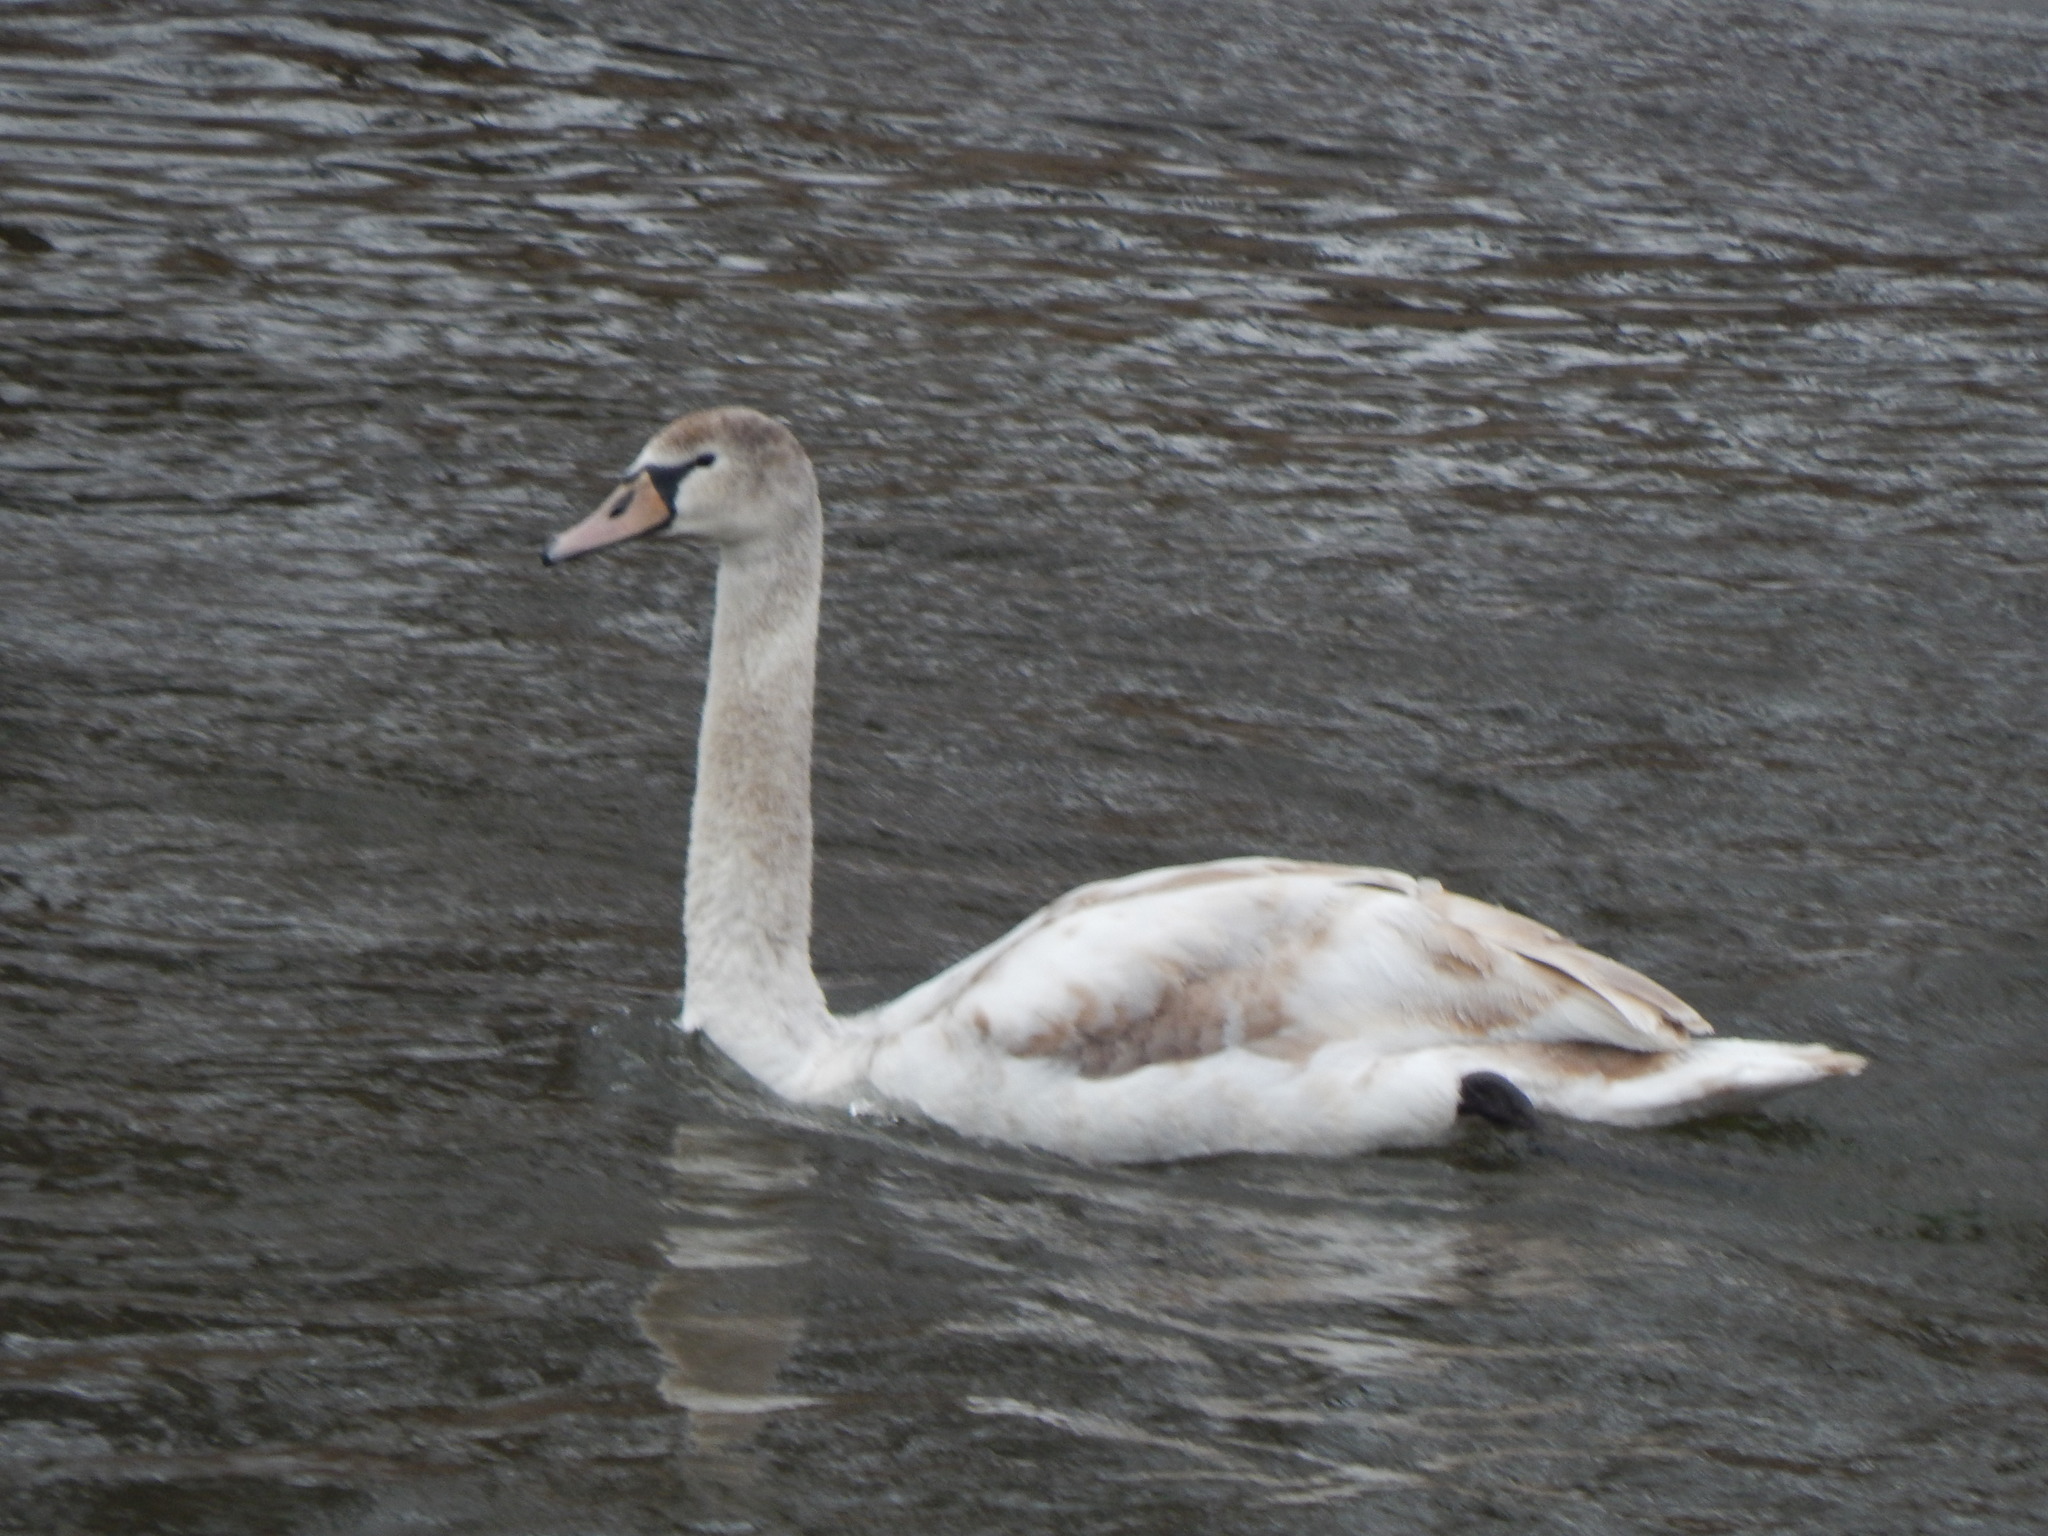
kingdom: Animalia
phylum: Chordata
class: Aves
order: Anseriformes
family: Anatidae
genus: Cygnus
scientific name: Cygnus olor
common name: Mute swan
